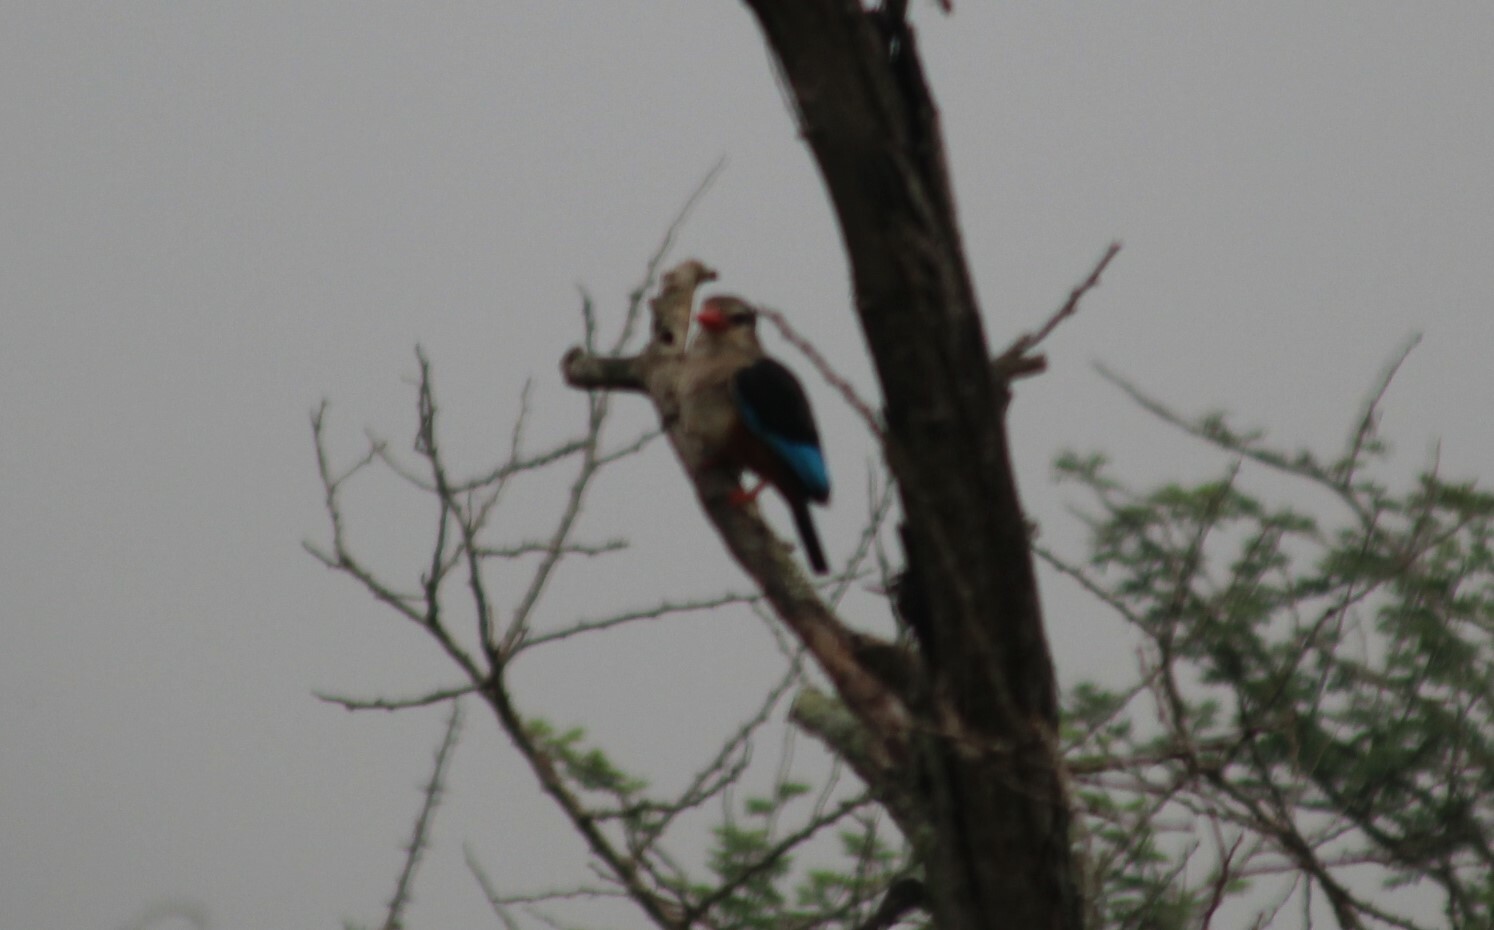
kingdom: Animalia
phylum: Chordata
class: Aves
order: Coraciiformes
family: Alcedinidae
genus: Halcyon
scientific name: Halcyon leucocephala
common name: Grey-headed kingfisher
